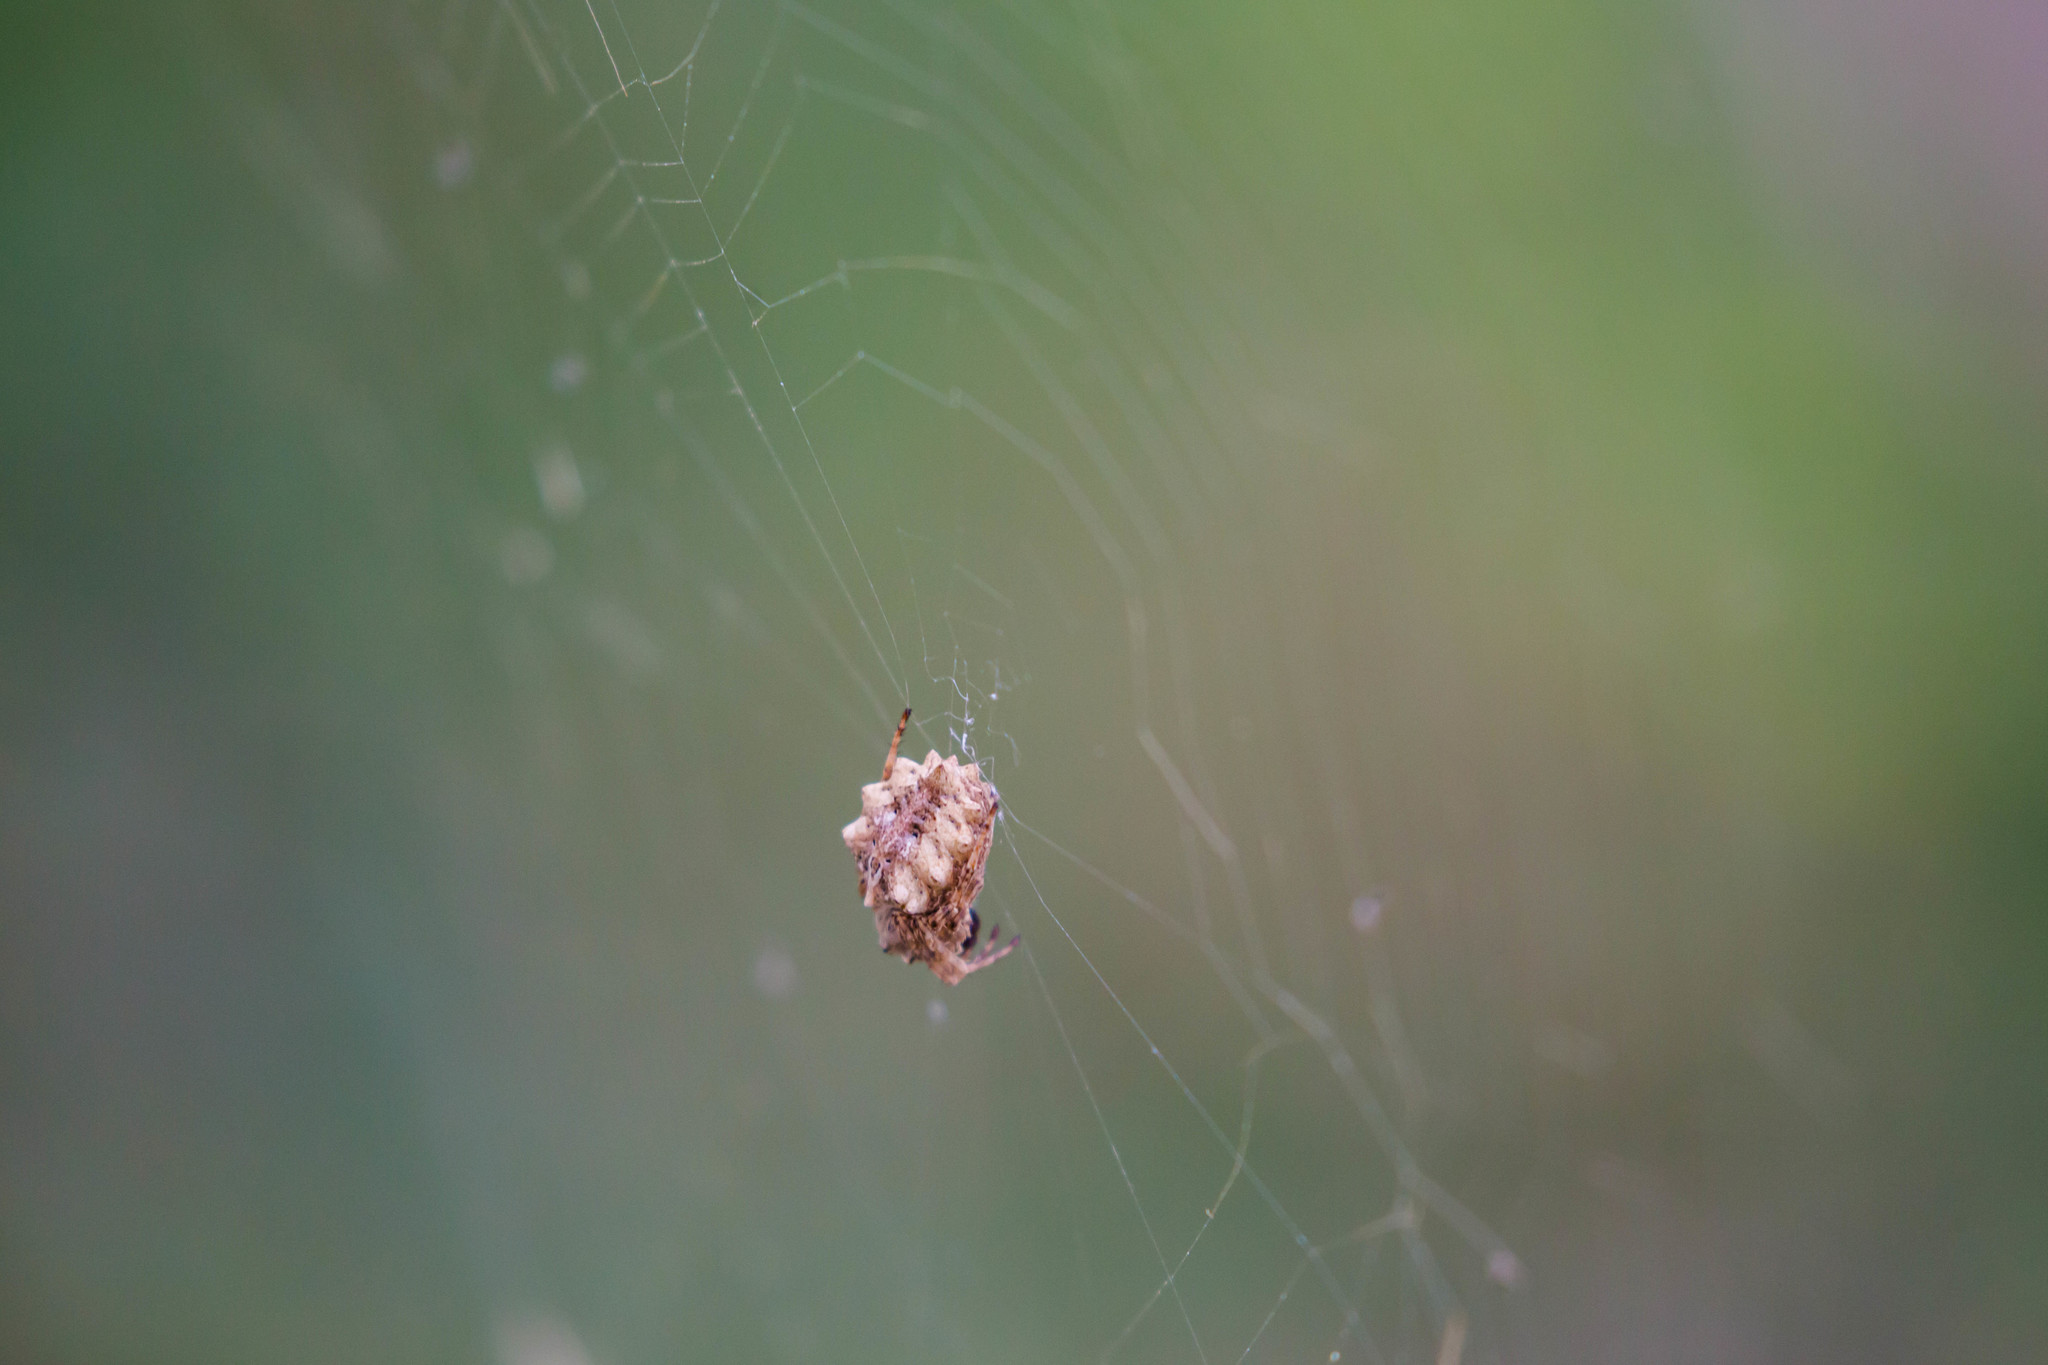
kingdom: Animalia
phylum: Arthropoda
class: Arachnida
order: Araneae
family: Araneidae
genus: Acanthepeira
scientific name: Acanthepeira stellata
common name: Starbellied orbweaver
